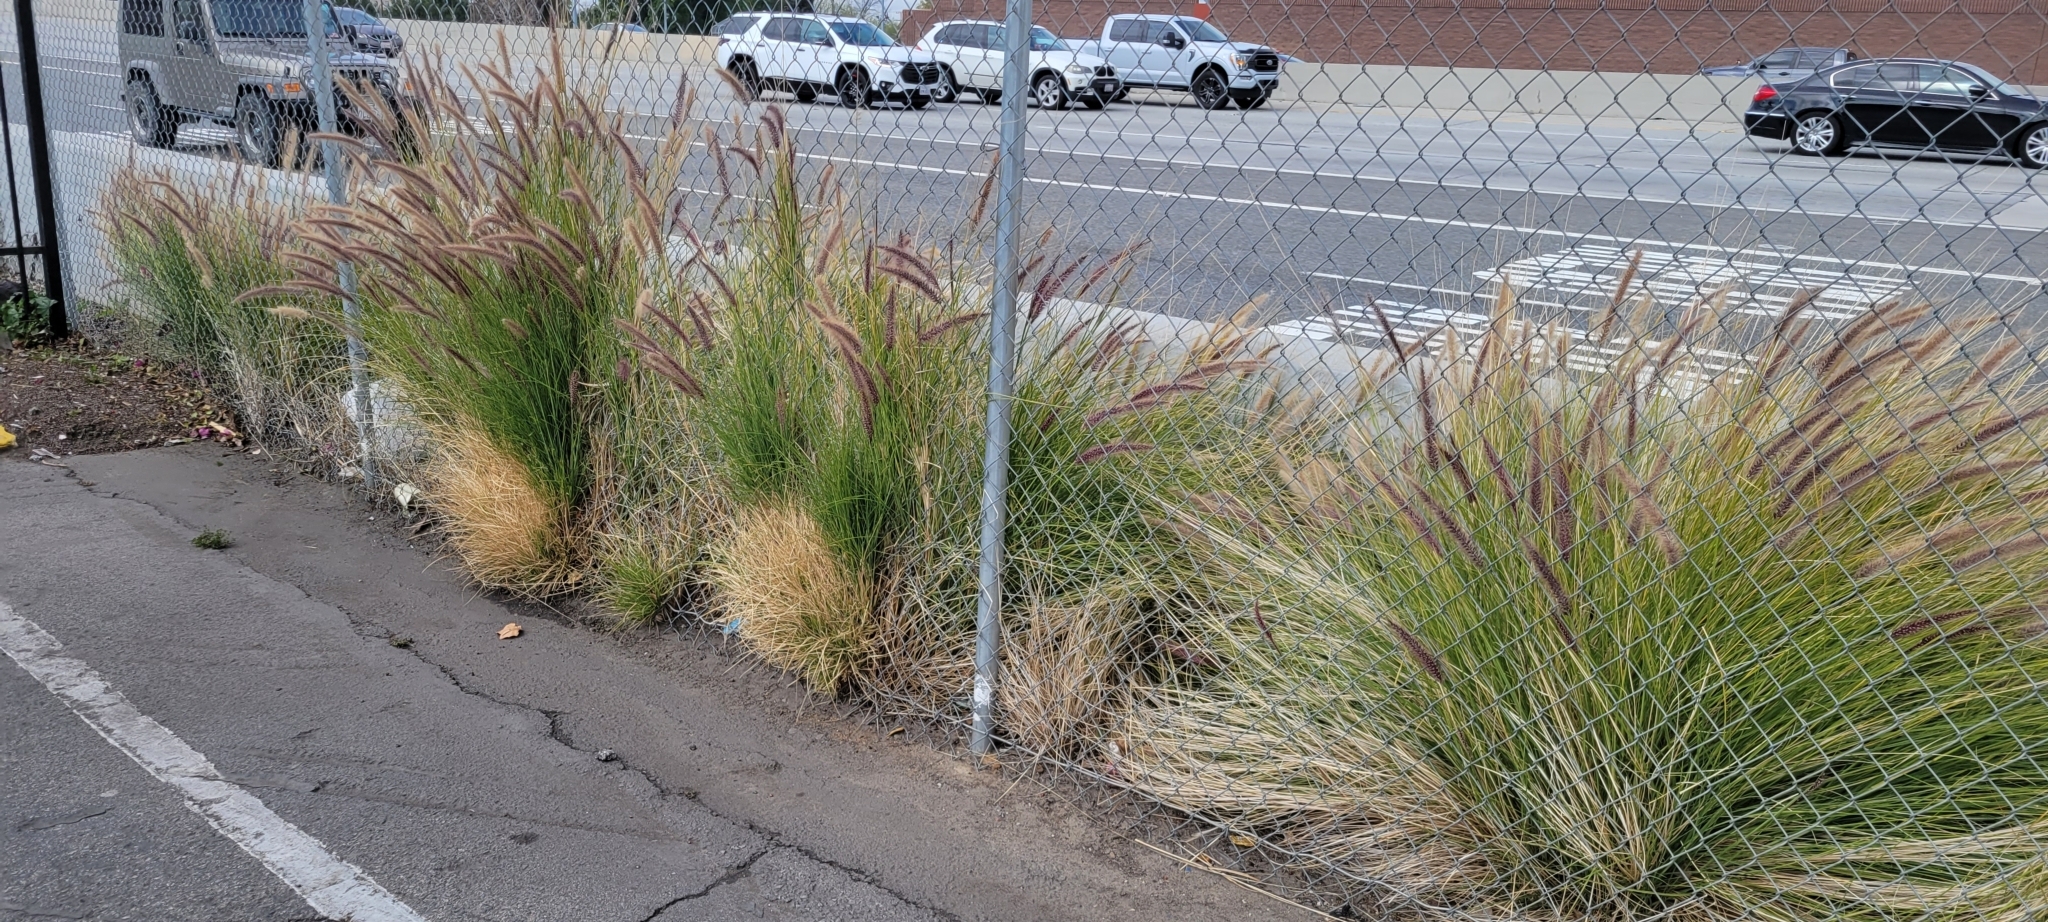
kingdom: Plantae
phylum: Tracheophyta
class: Liliopsida
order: Poales
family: Poaceae
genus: Cenchrus
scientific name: Cenchrus setaceus
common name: Crimson fountaingrass
